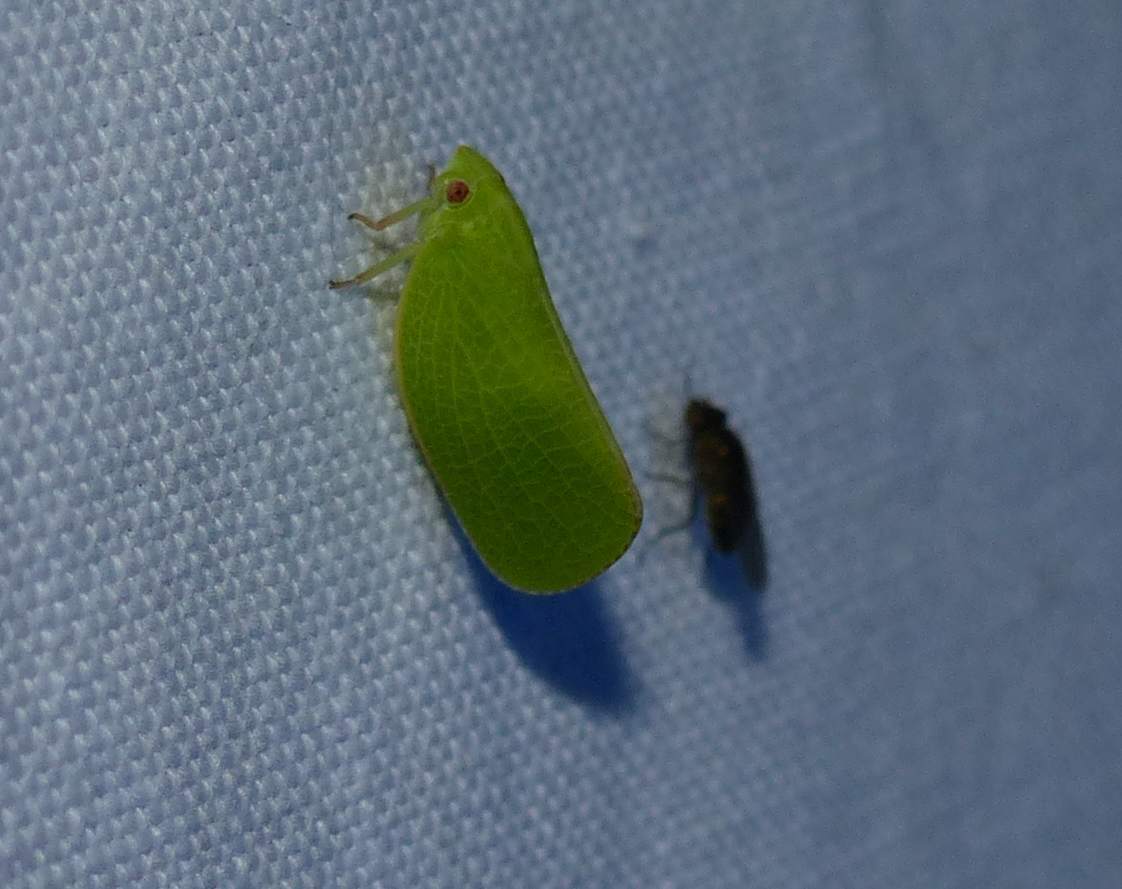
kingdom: Animalia
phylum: Arthropoda
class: Insecta
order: Hemiptera
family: Acanaloniidae
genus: Acanalonia
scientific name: Acanalonia conica
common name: Green cone-headed planthopper
